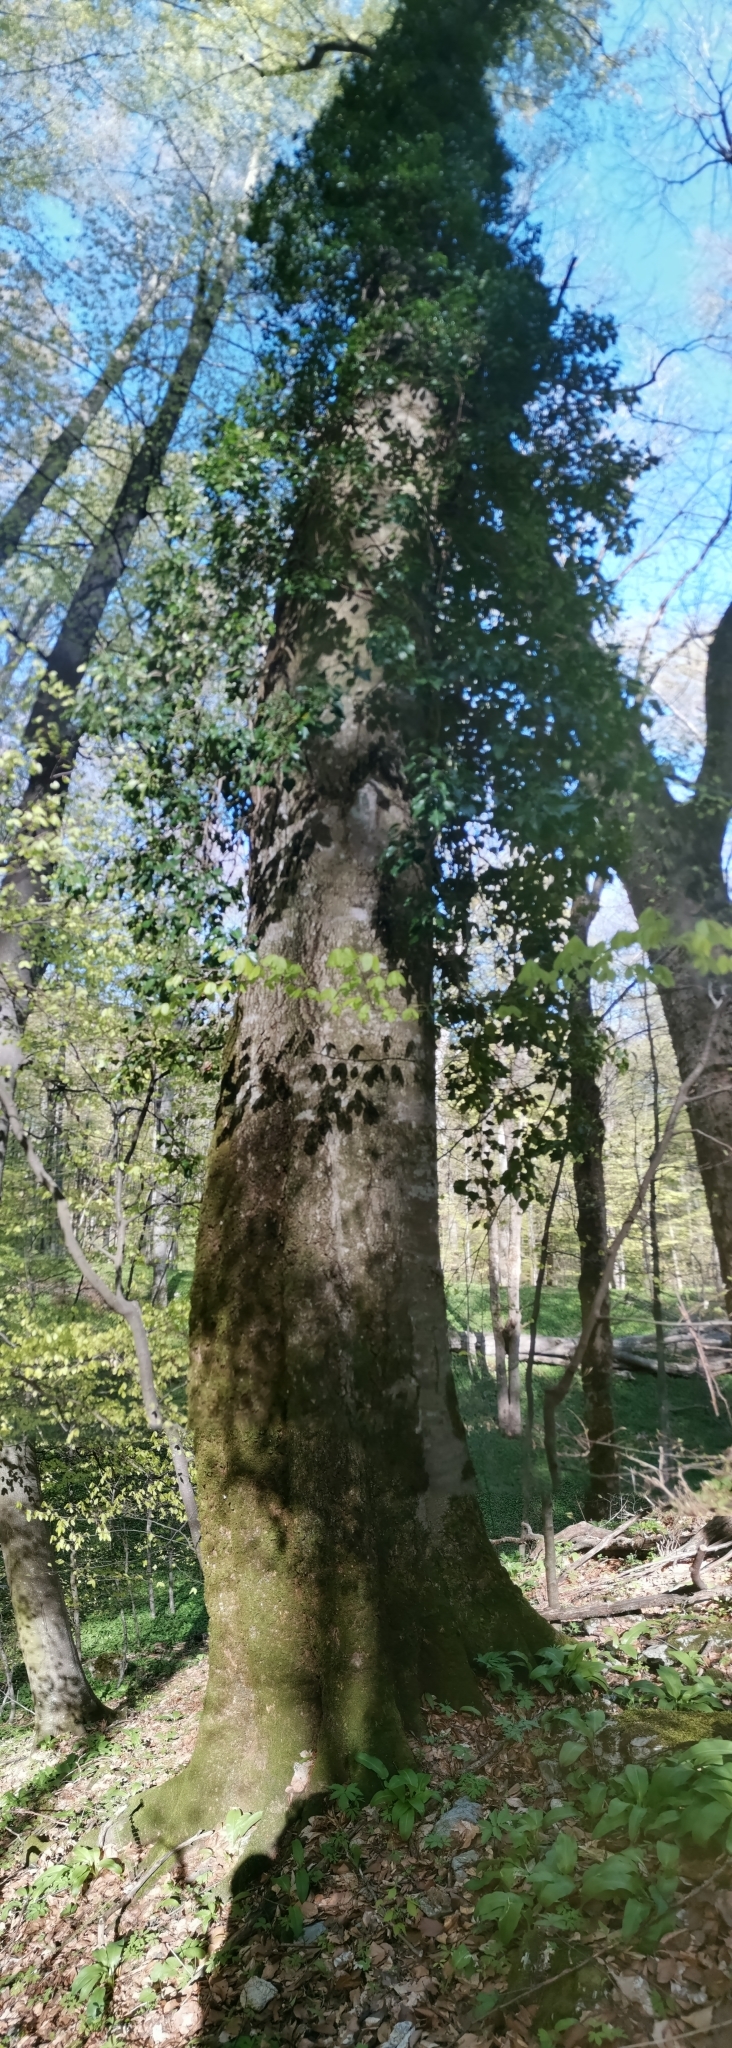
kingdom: Plantae
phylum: Tracheophyta
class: Magnoliopsida
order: Fagales
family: Fagaceae
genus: Fagus
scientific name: Fagus sylvatica
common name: Beech
